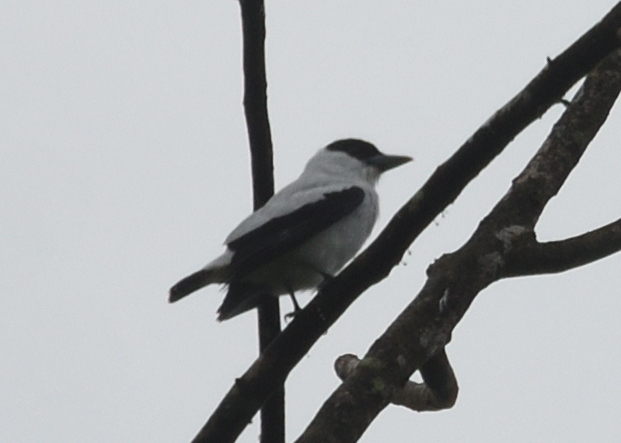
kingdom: Animalia
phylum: Chordata
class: Aves
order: Passeriformes
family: Cotingidae
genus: Tityra
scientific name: Tityra inquisitor
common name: Black-crowned tityra
